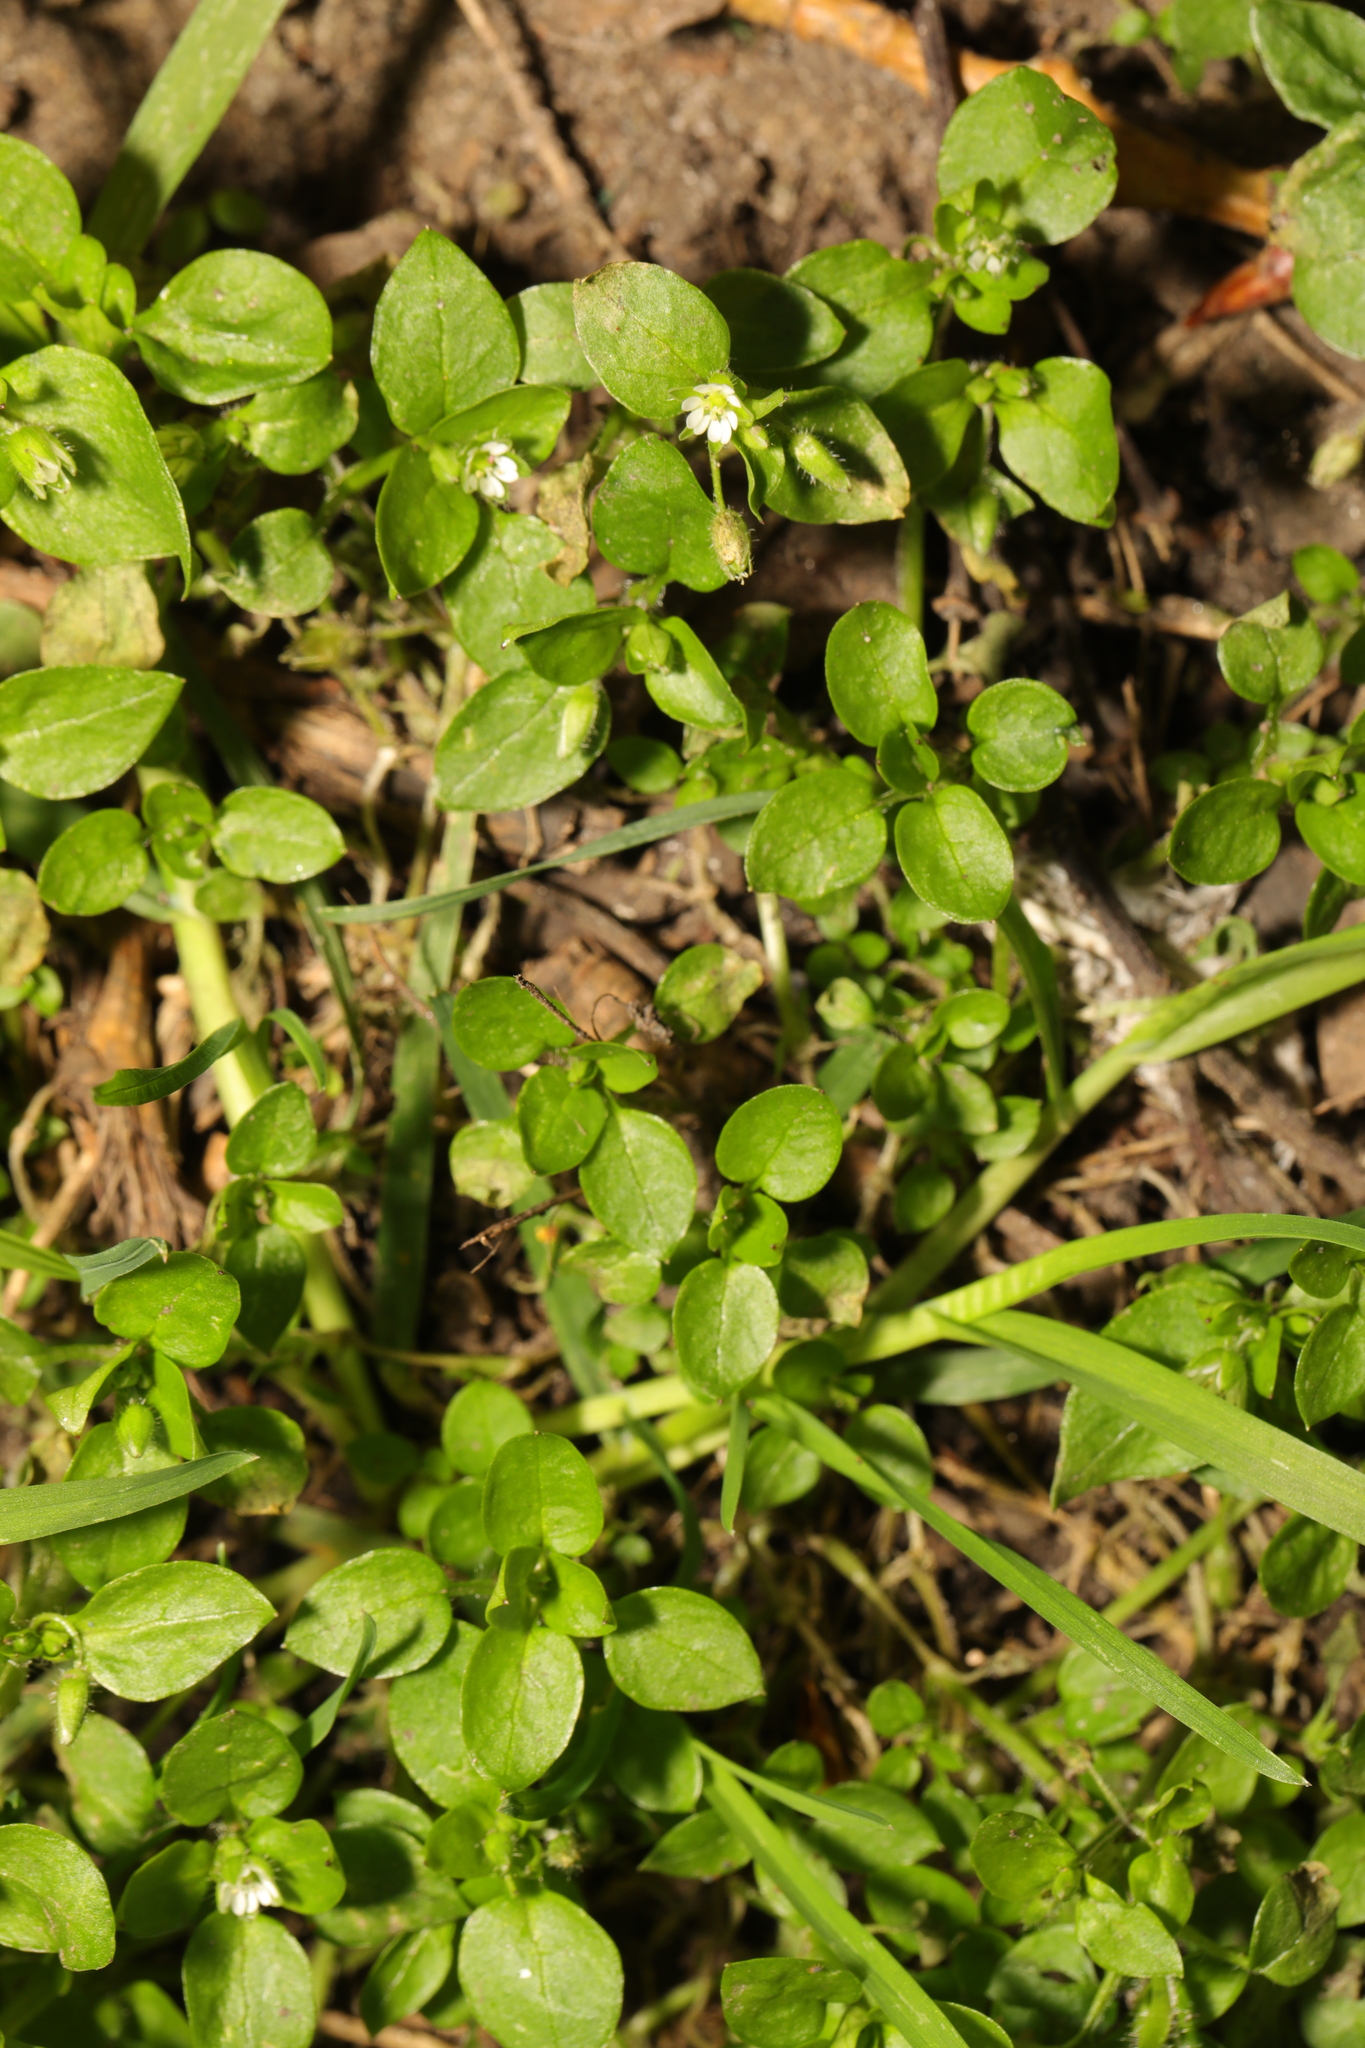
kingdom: Plantae
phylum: Tracheophyta
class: Magnoliopsida
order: Caryophyllales
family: Caryophyllaceae
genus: Stellaria
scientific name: Stellaria media
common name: Common chickweed
